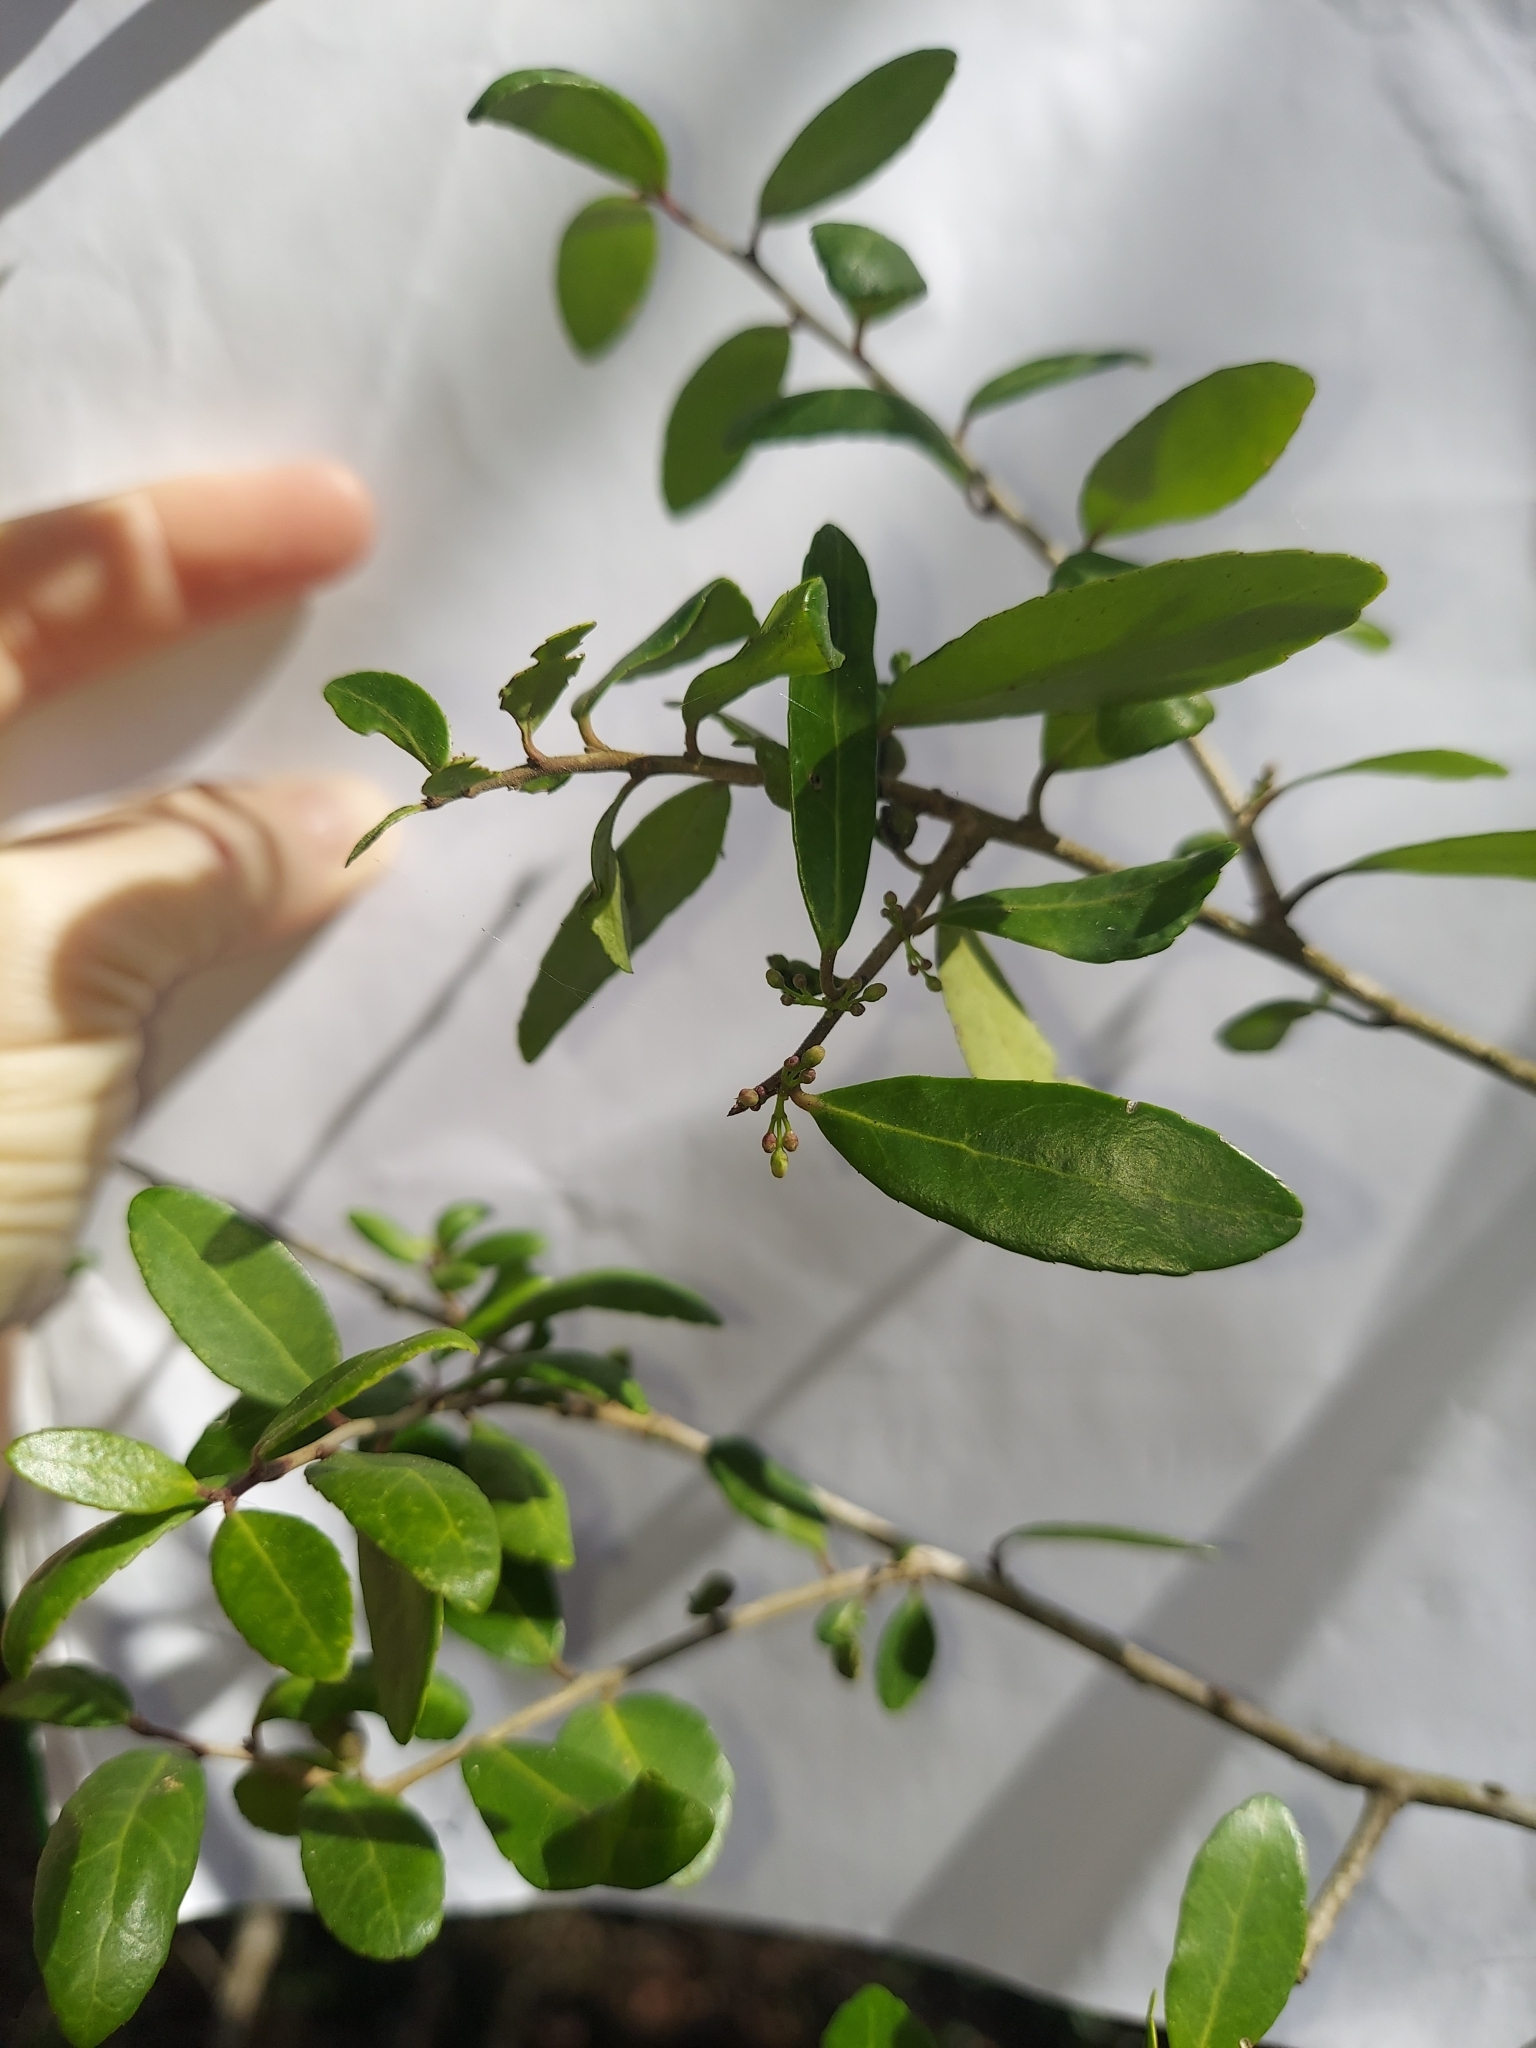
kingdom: Plantae
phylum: Tracheophyta
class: Magnoliopsida
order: Aquifoliales
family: Aquifoliaceae
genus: Ilex
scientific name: Ilex vomitoria
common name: Yaupon holly
